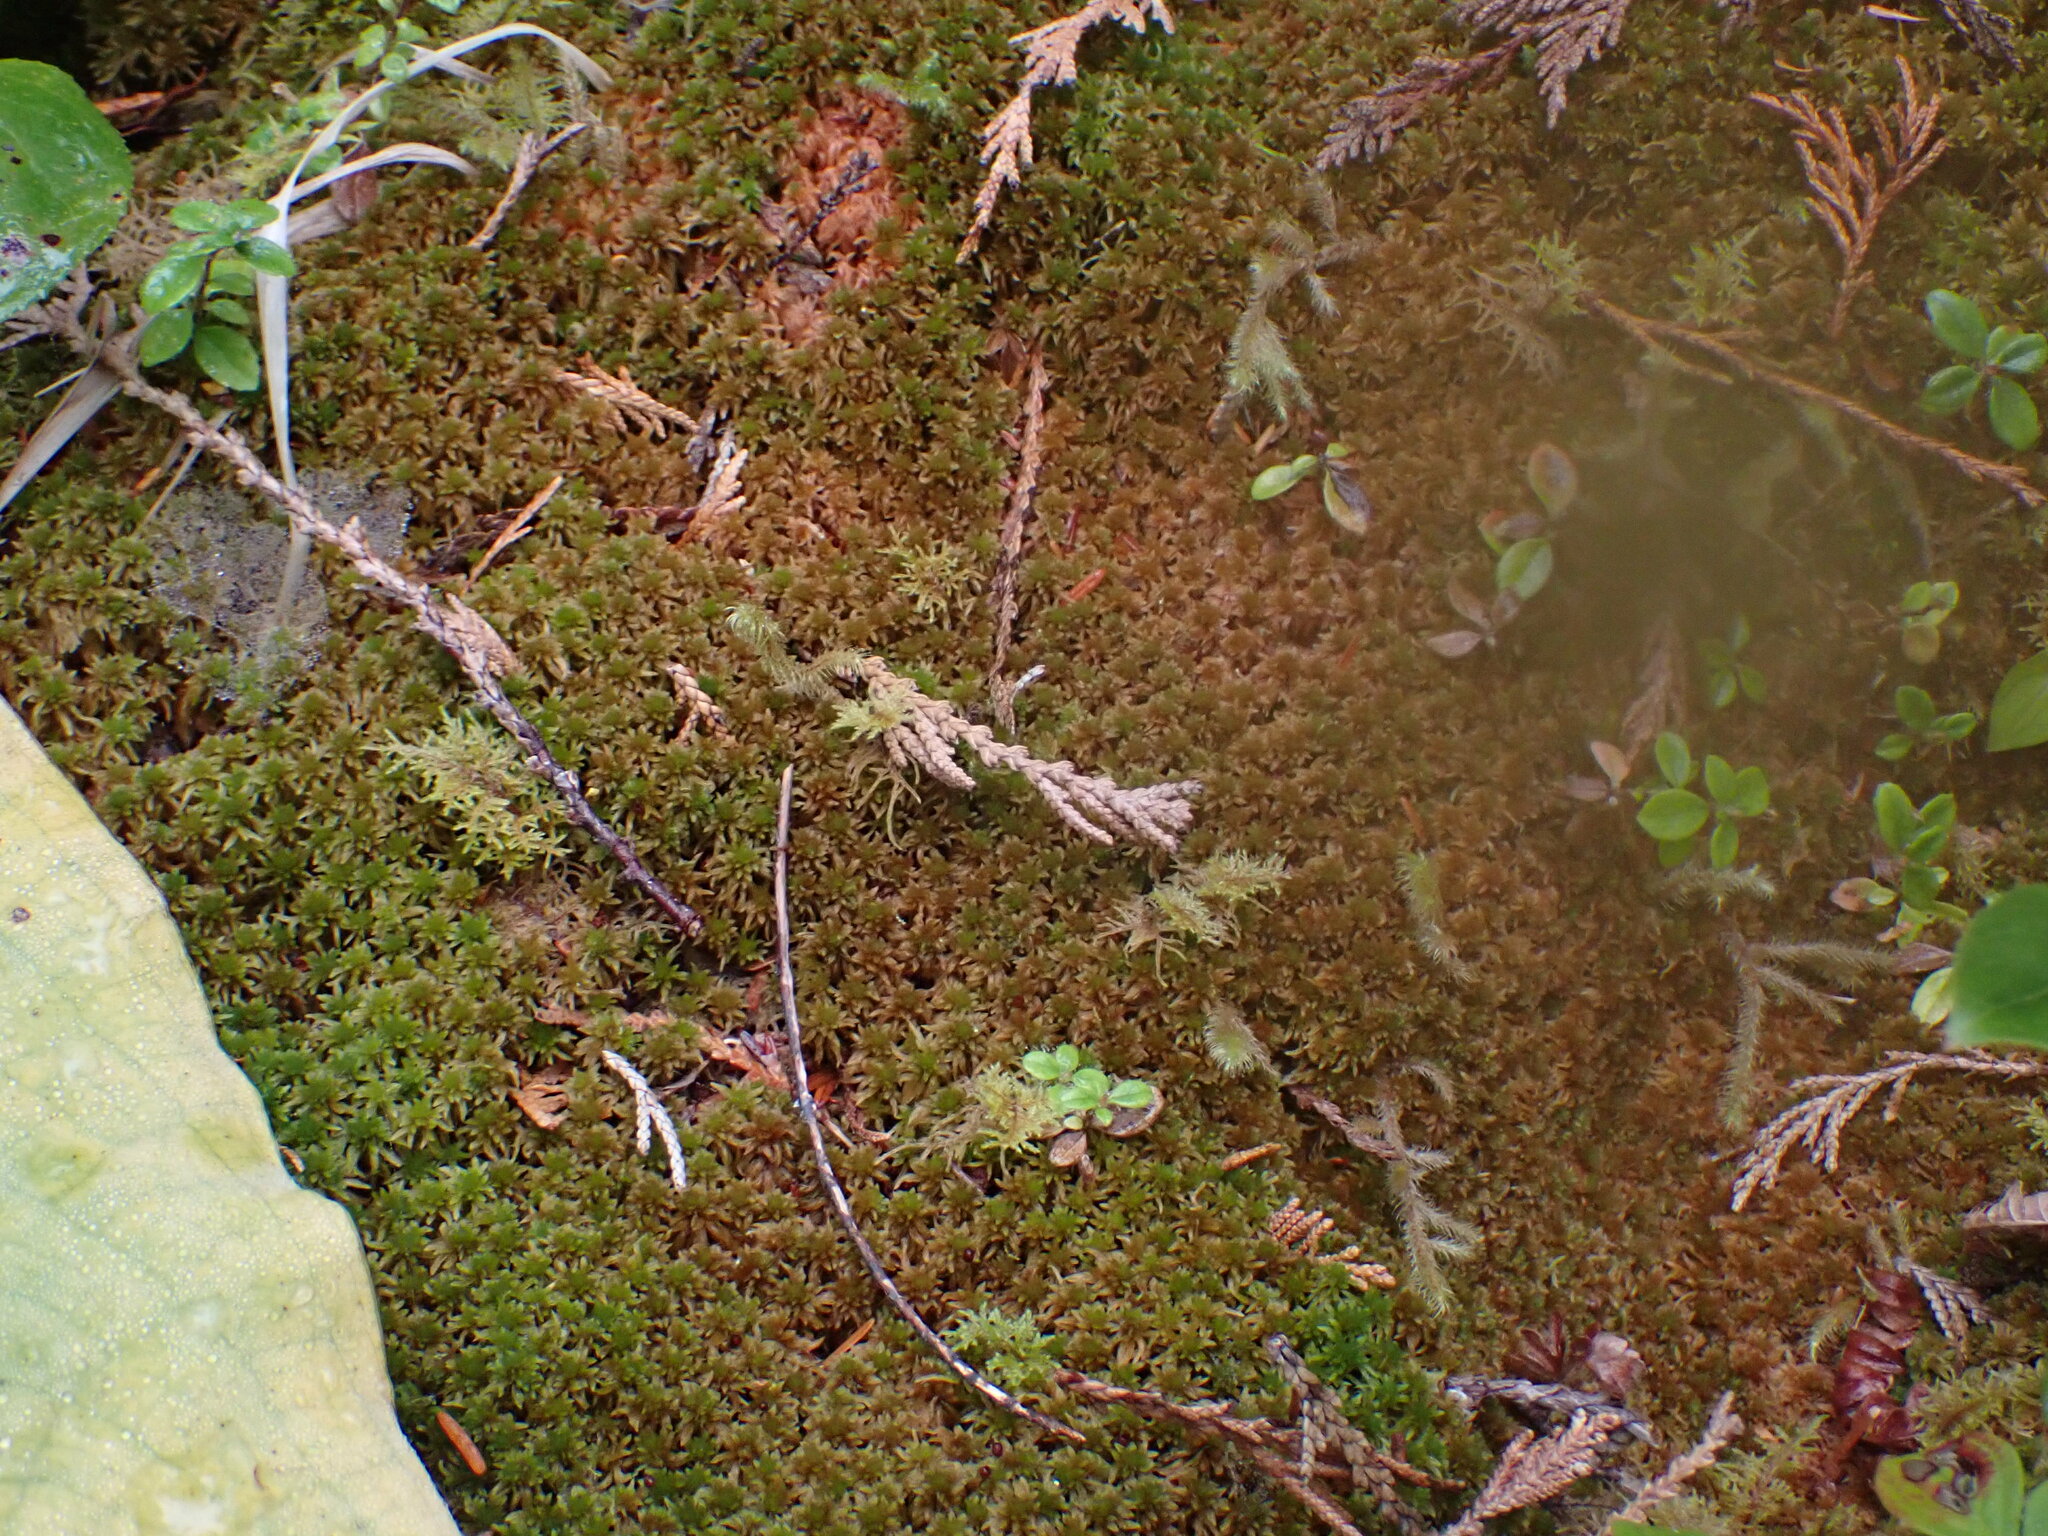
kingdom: Plantae
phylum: Bryophyta
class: Sphagnopsida
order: Sphagnales
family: Sphagnaceae
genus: Sphagnum
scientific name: Sphagnum fuscum
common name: Brown peat moss
